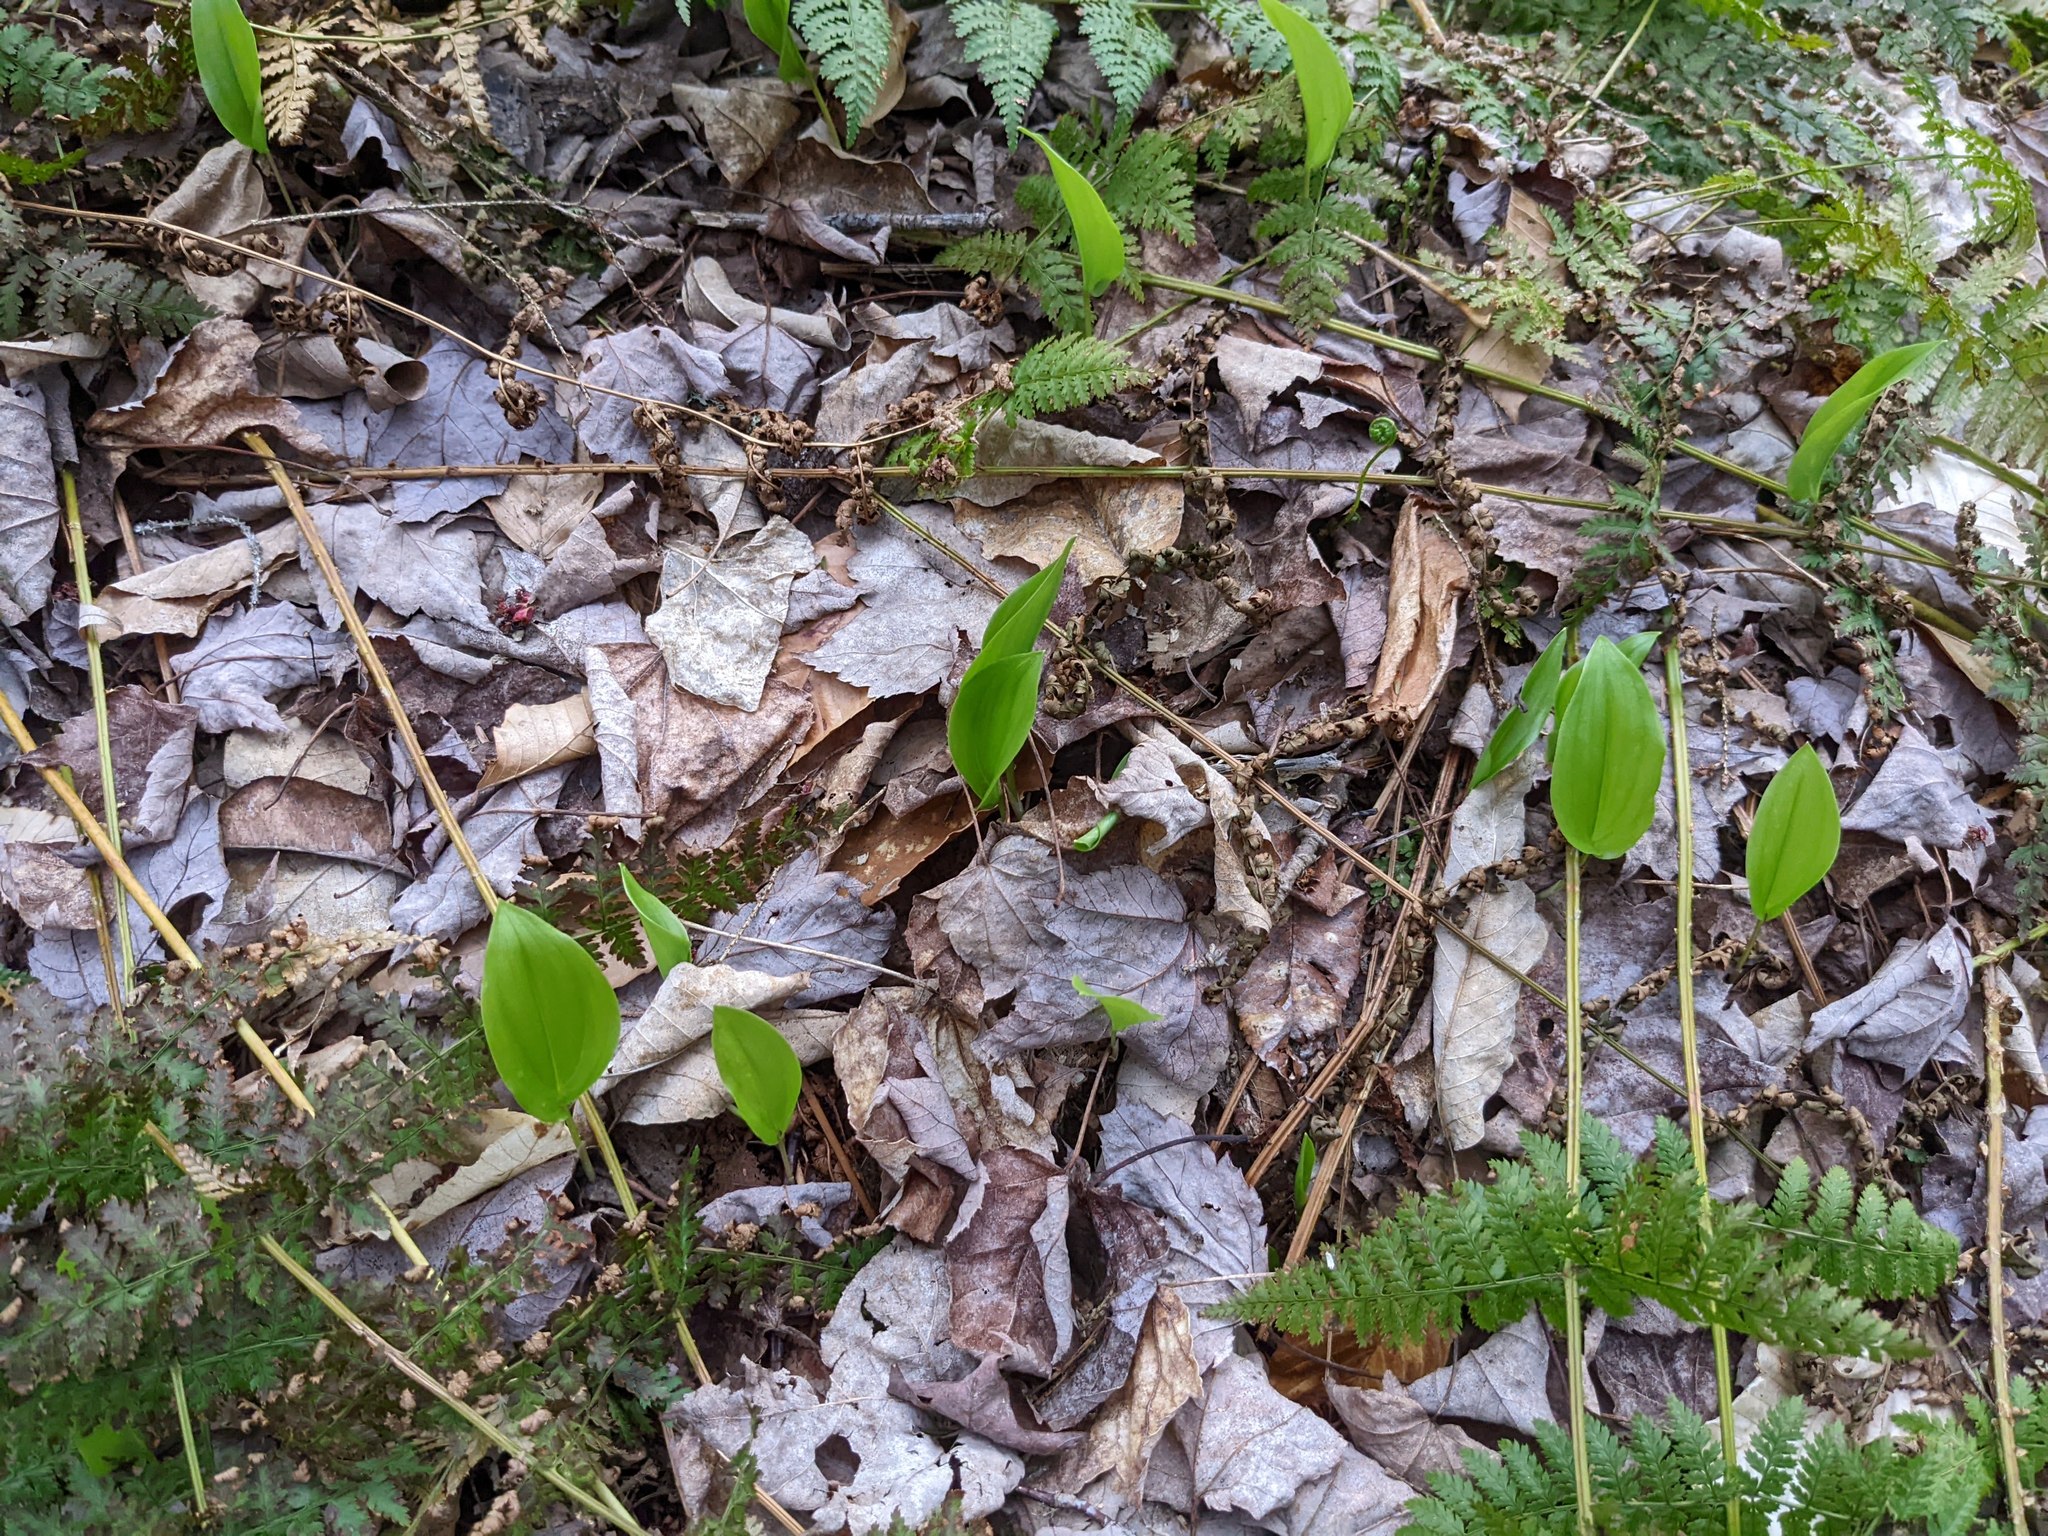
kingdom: Plantae
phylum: Tracheophyta
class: Liliopsida
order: Asparagales
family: Asparagaceae
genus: Maianthemum
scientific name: Maianthemum canadense
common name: False lily-of-the-valley
